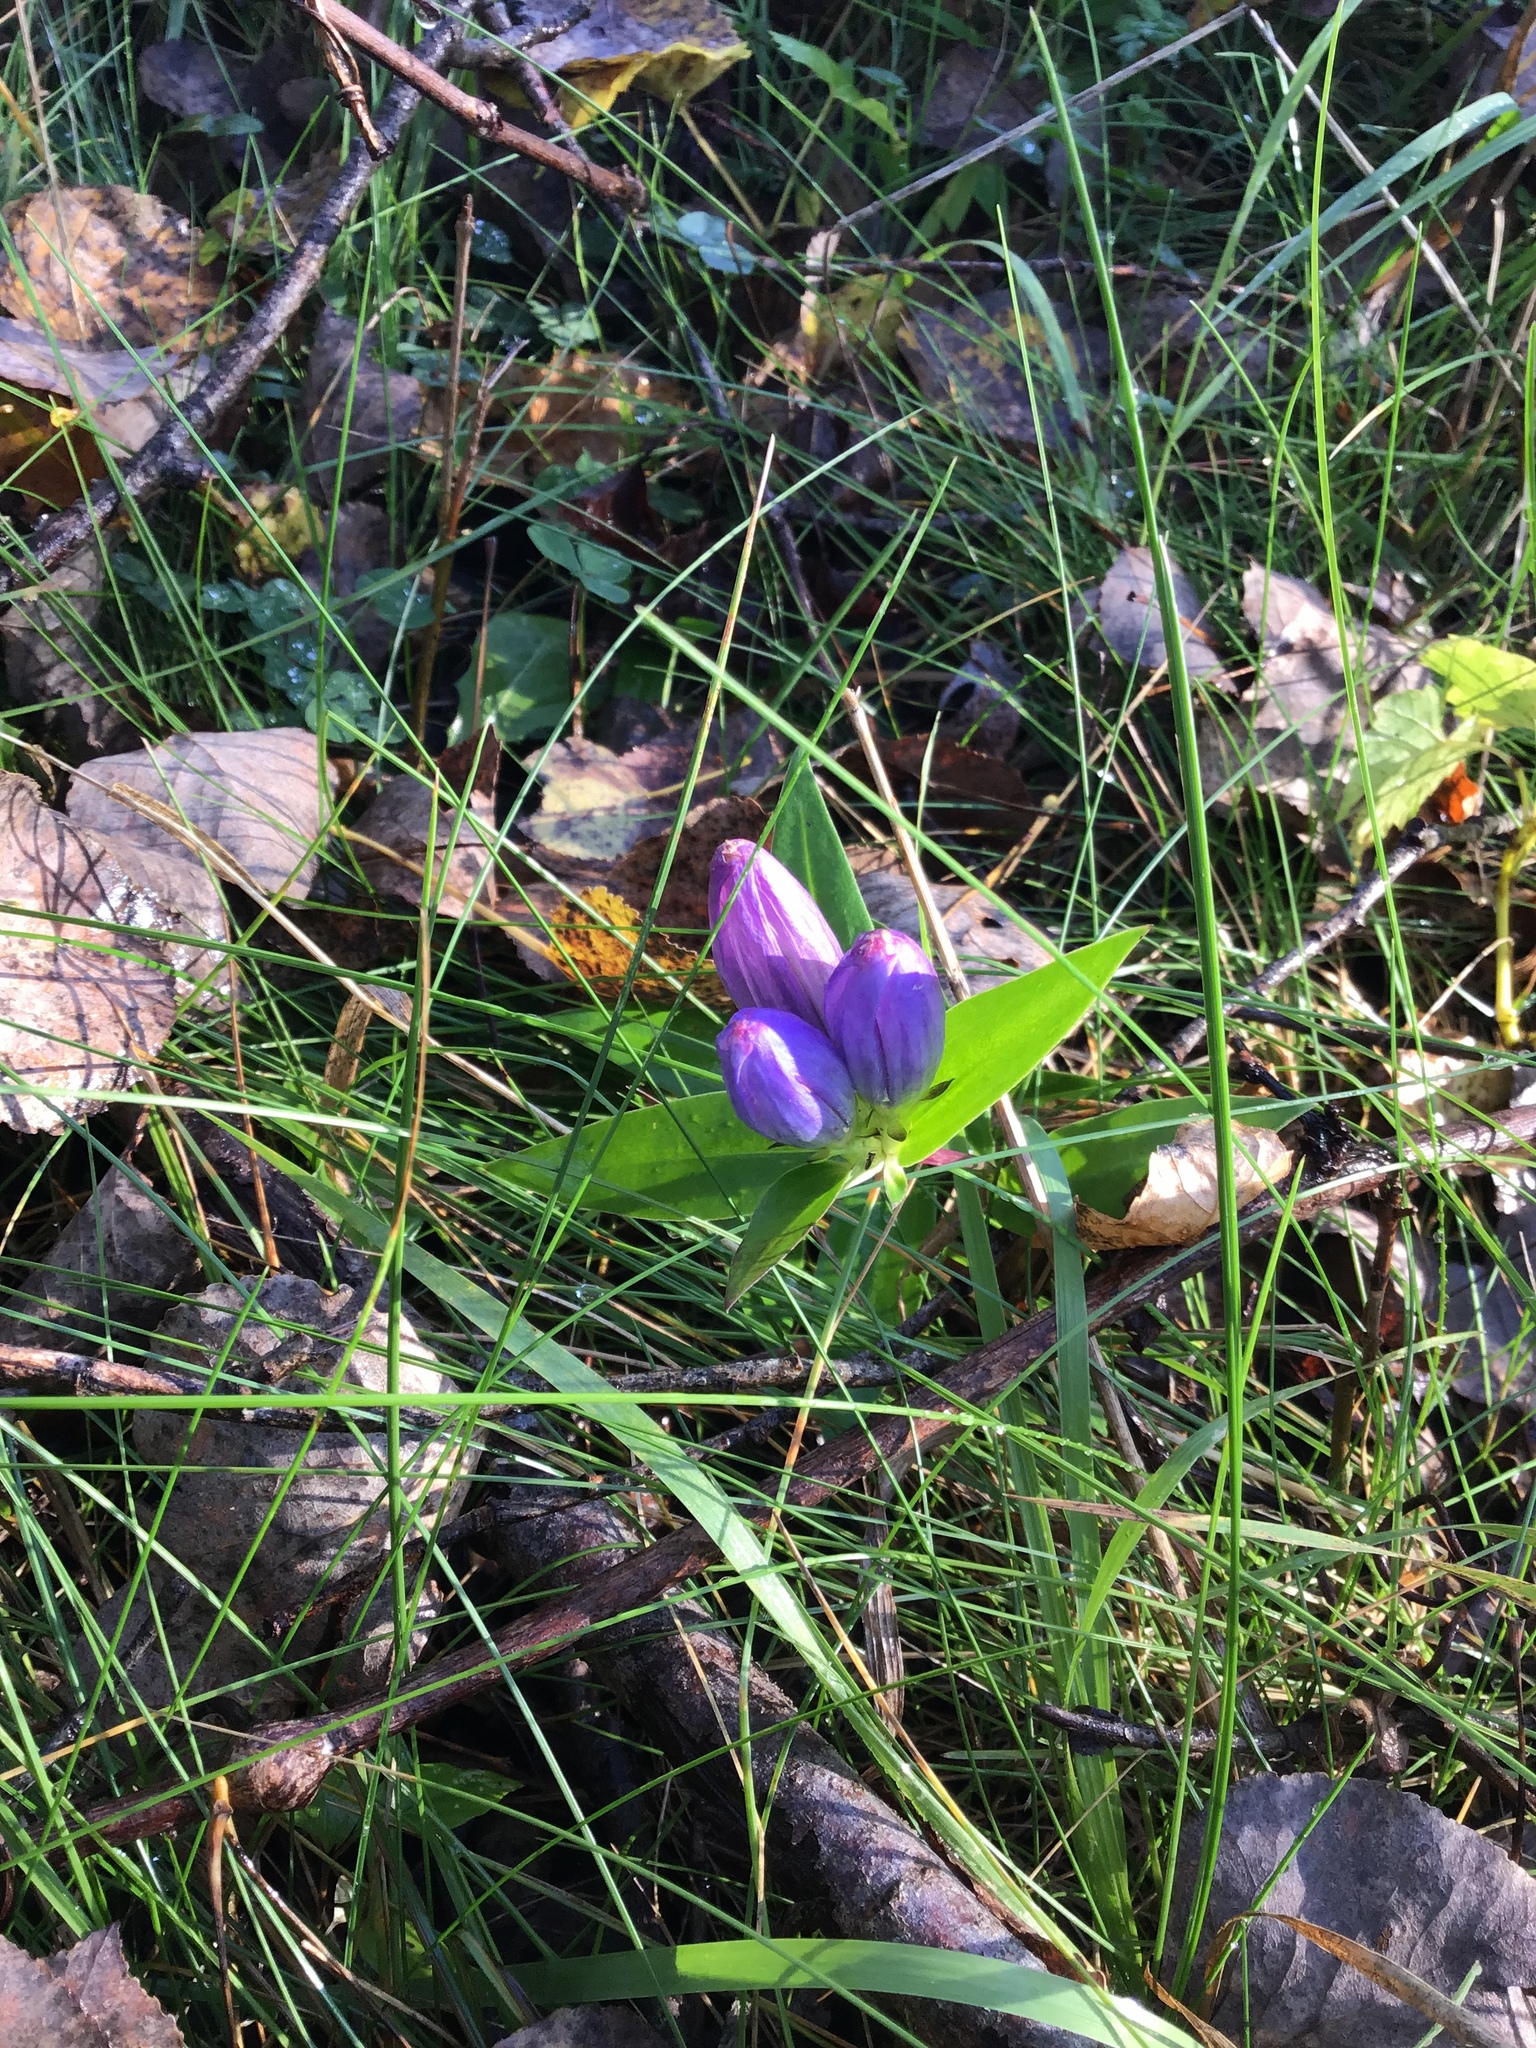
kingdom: Plantae
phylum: Tracheophyta
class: Magnoliopsida
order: Gentianales
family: Gentianaceae
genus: Gentiana
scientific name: Gentiana andrewsii
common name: Bottle gentian
